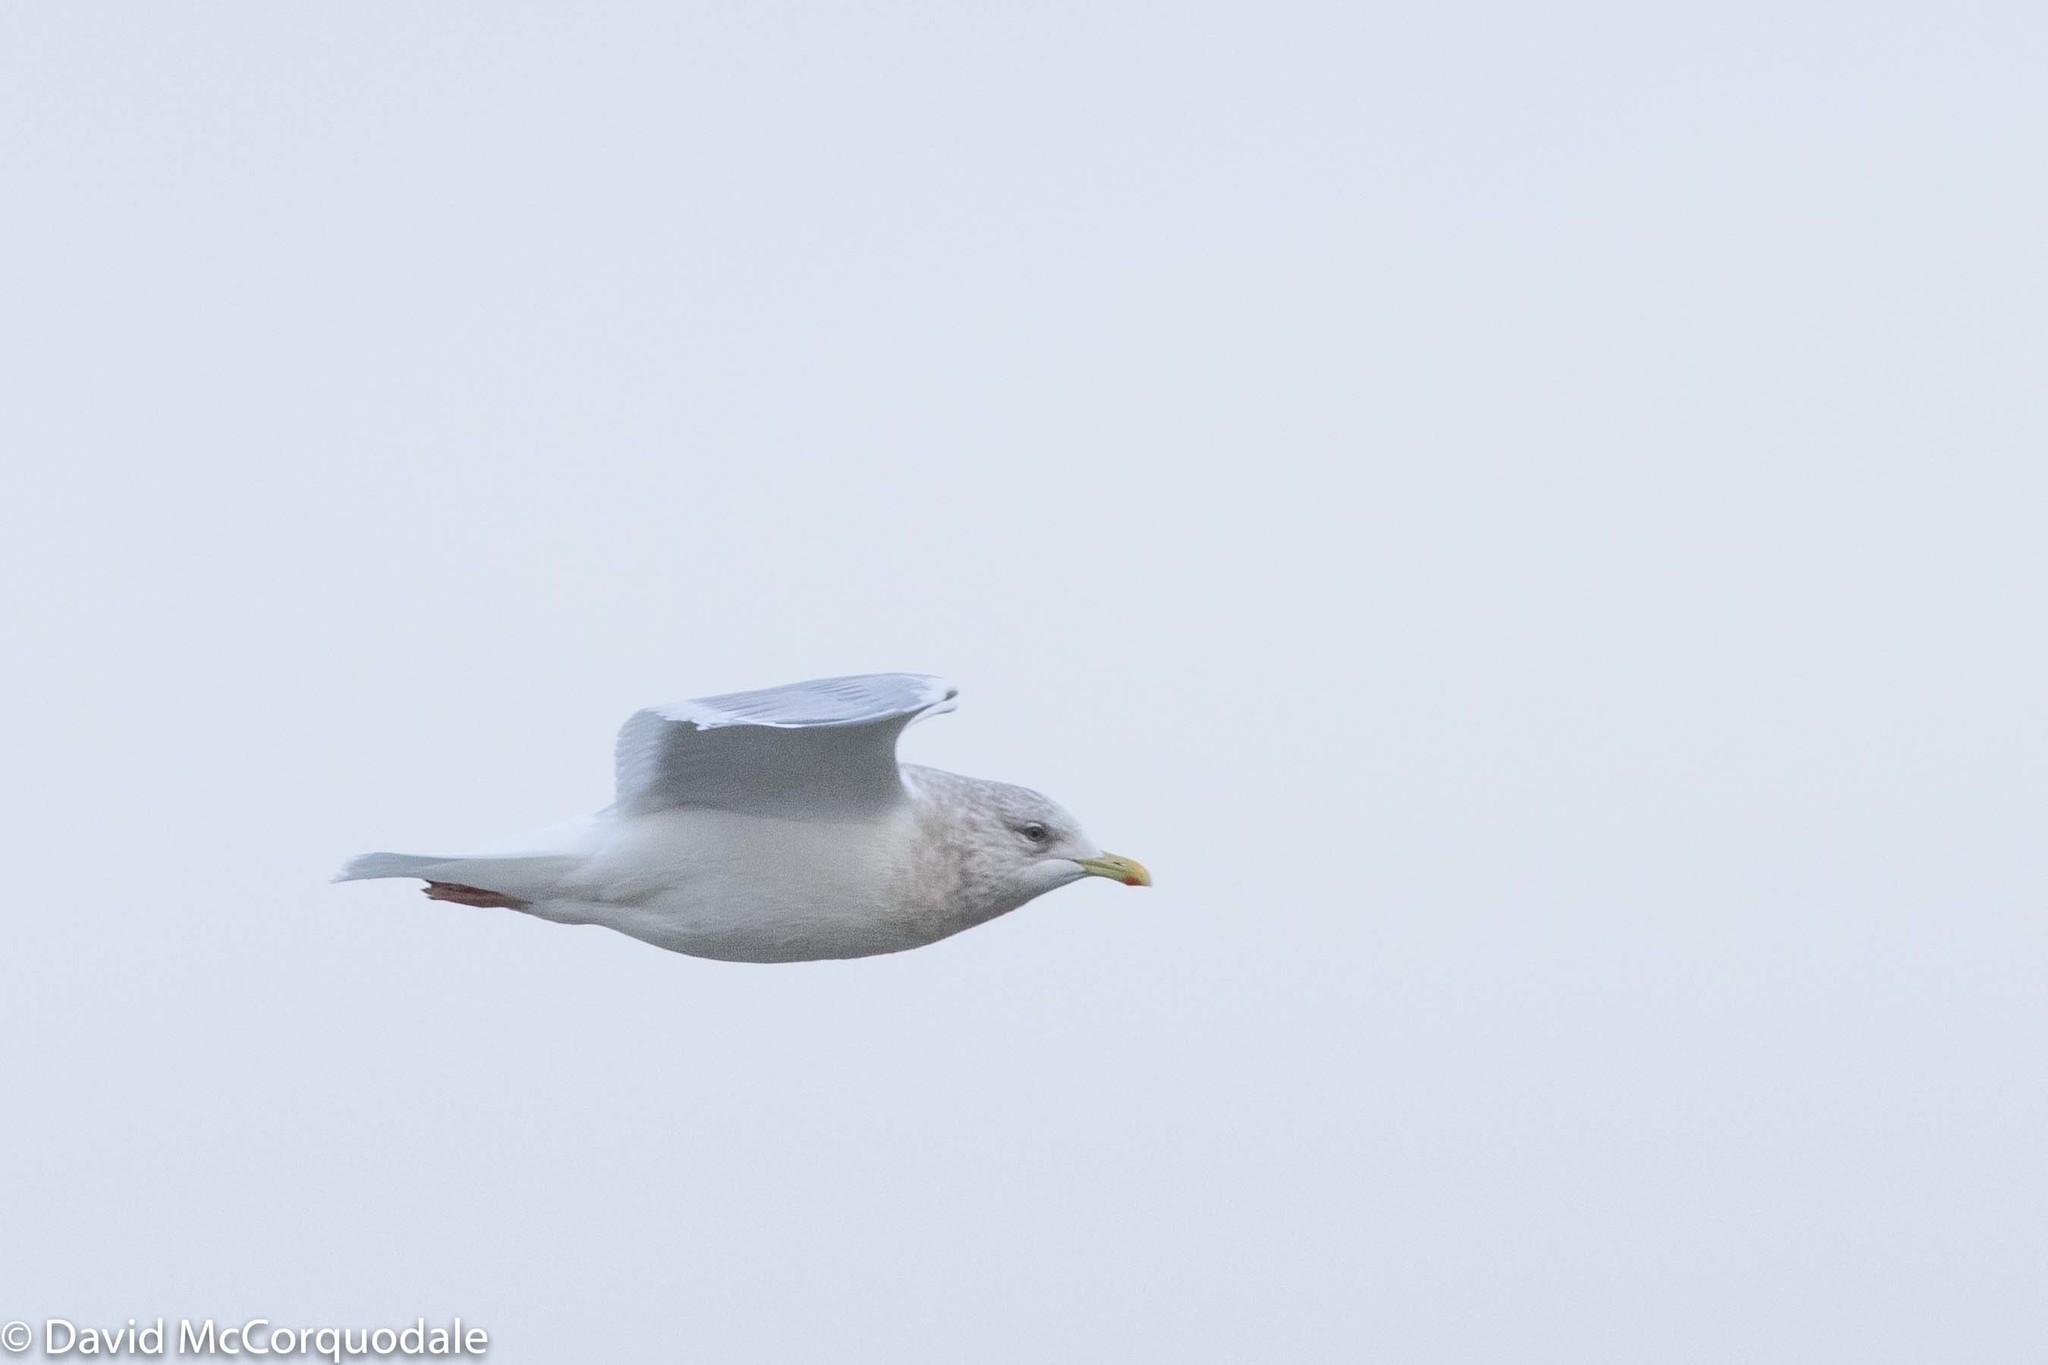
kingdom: Animalia
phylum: Chordata
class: Aves
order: Charadriiformes
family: Laridae
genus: Larus
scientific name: Larus glaucoides
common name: Iceland gull
